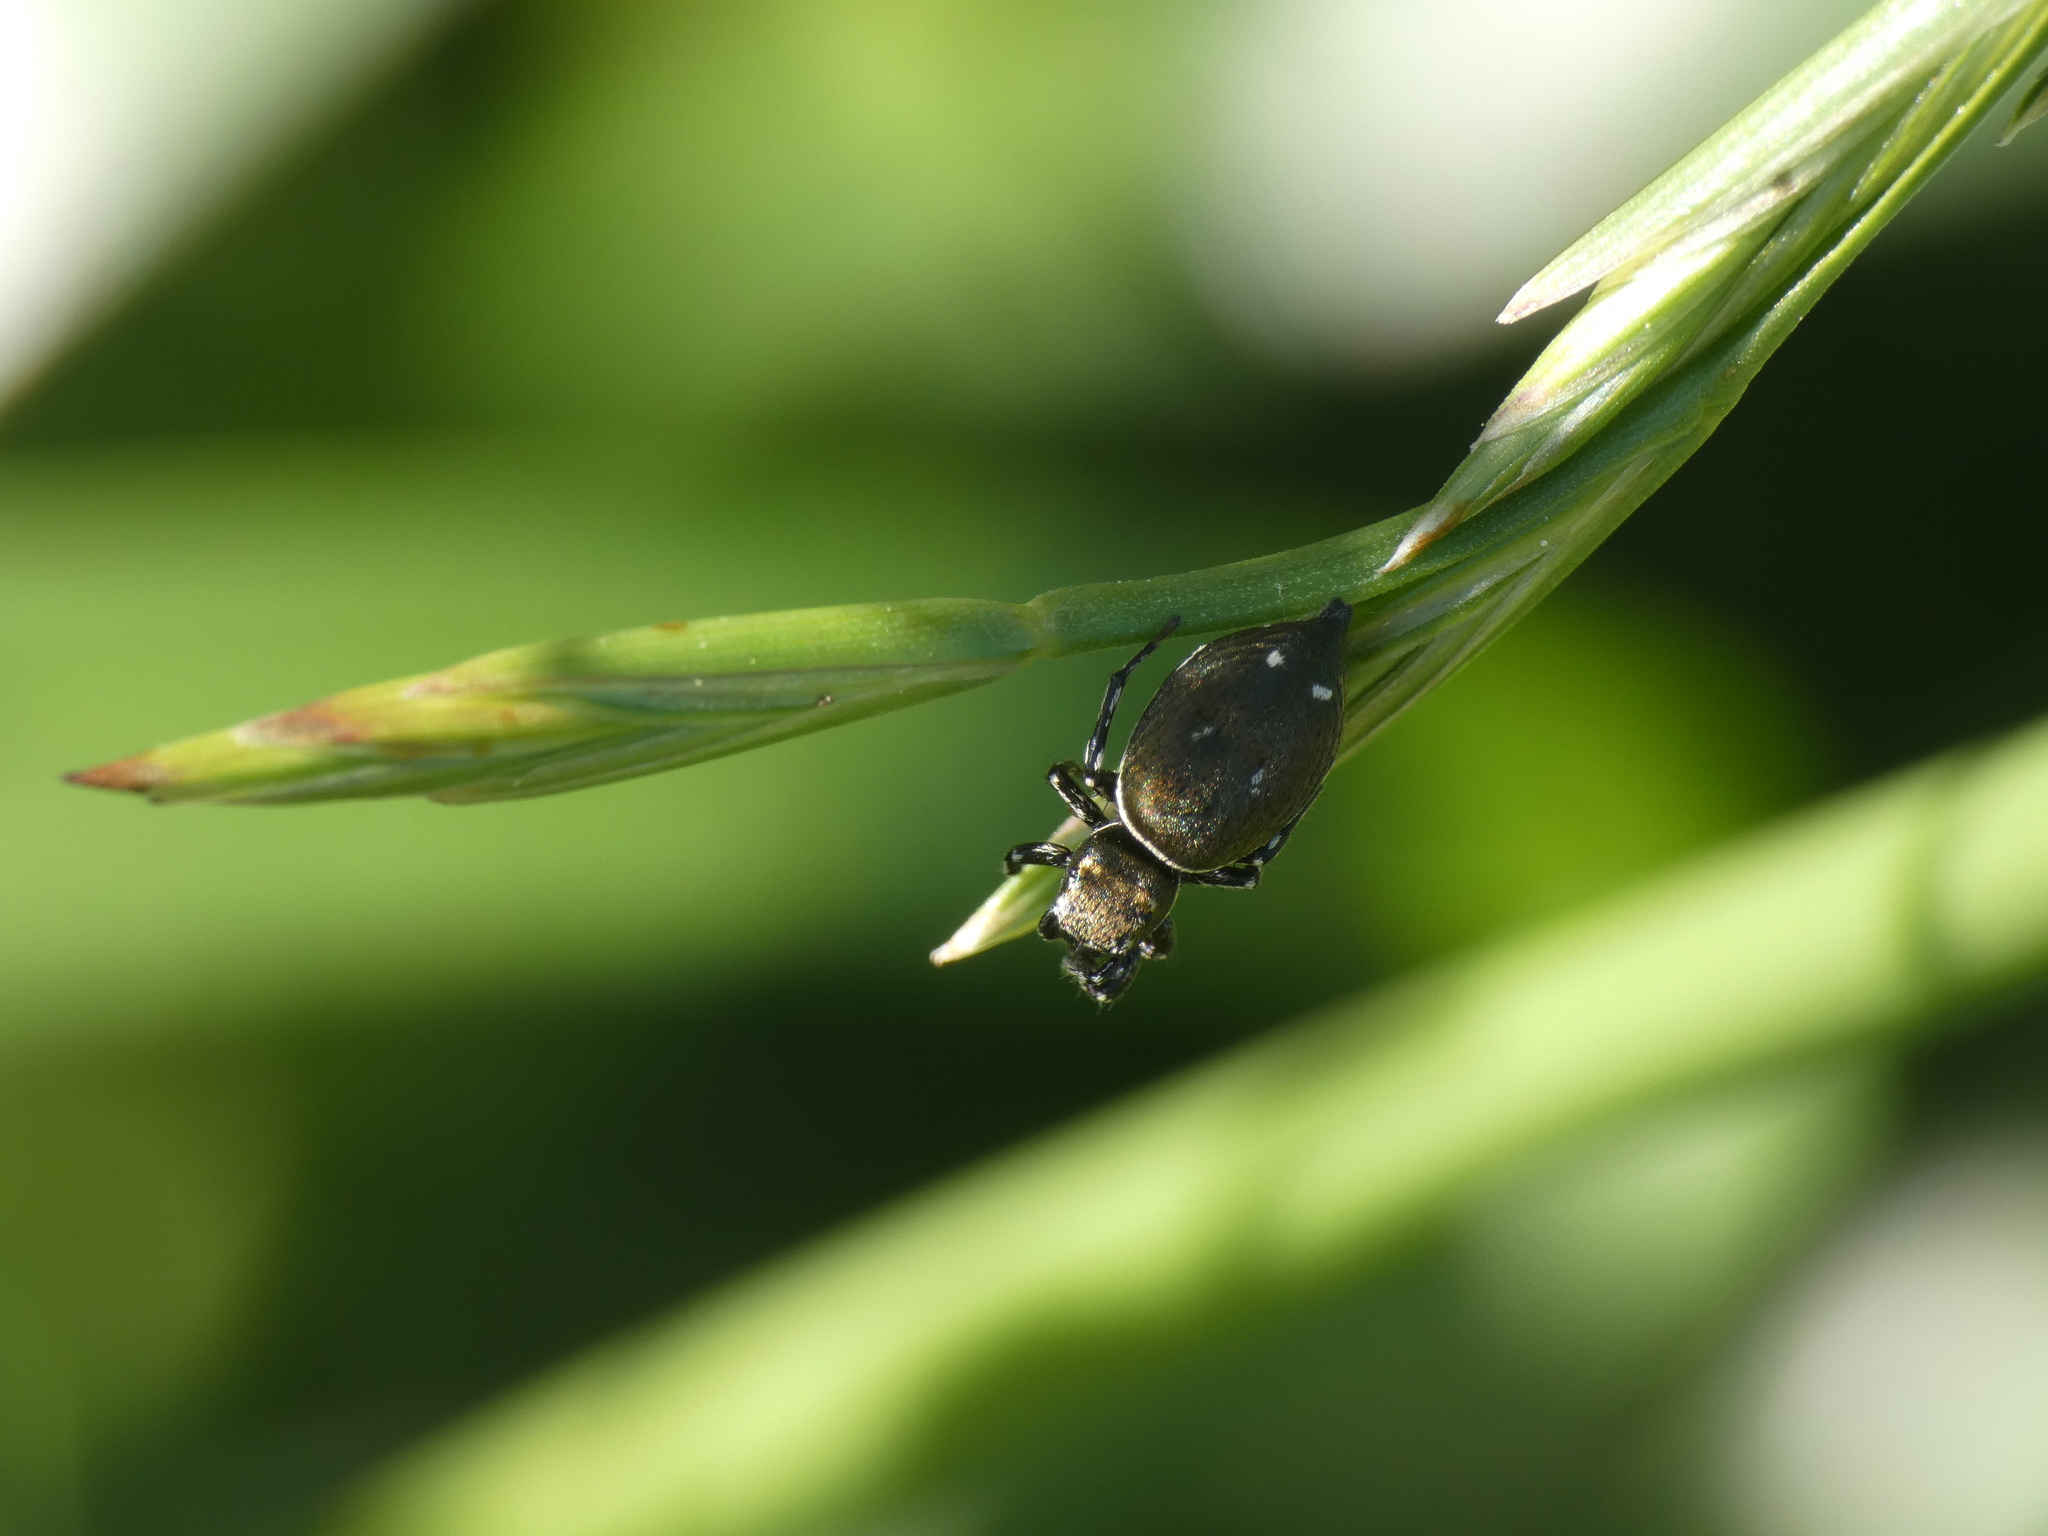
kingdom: Animalia
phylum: Arthropoda
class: Arachnida
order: Araneae
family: Salticidae
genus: Heliophanus
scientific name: Heliophanus kochii
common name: Sun jumping spider
